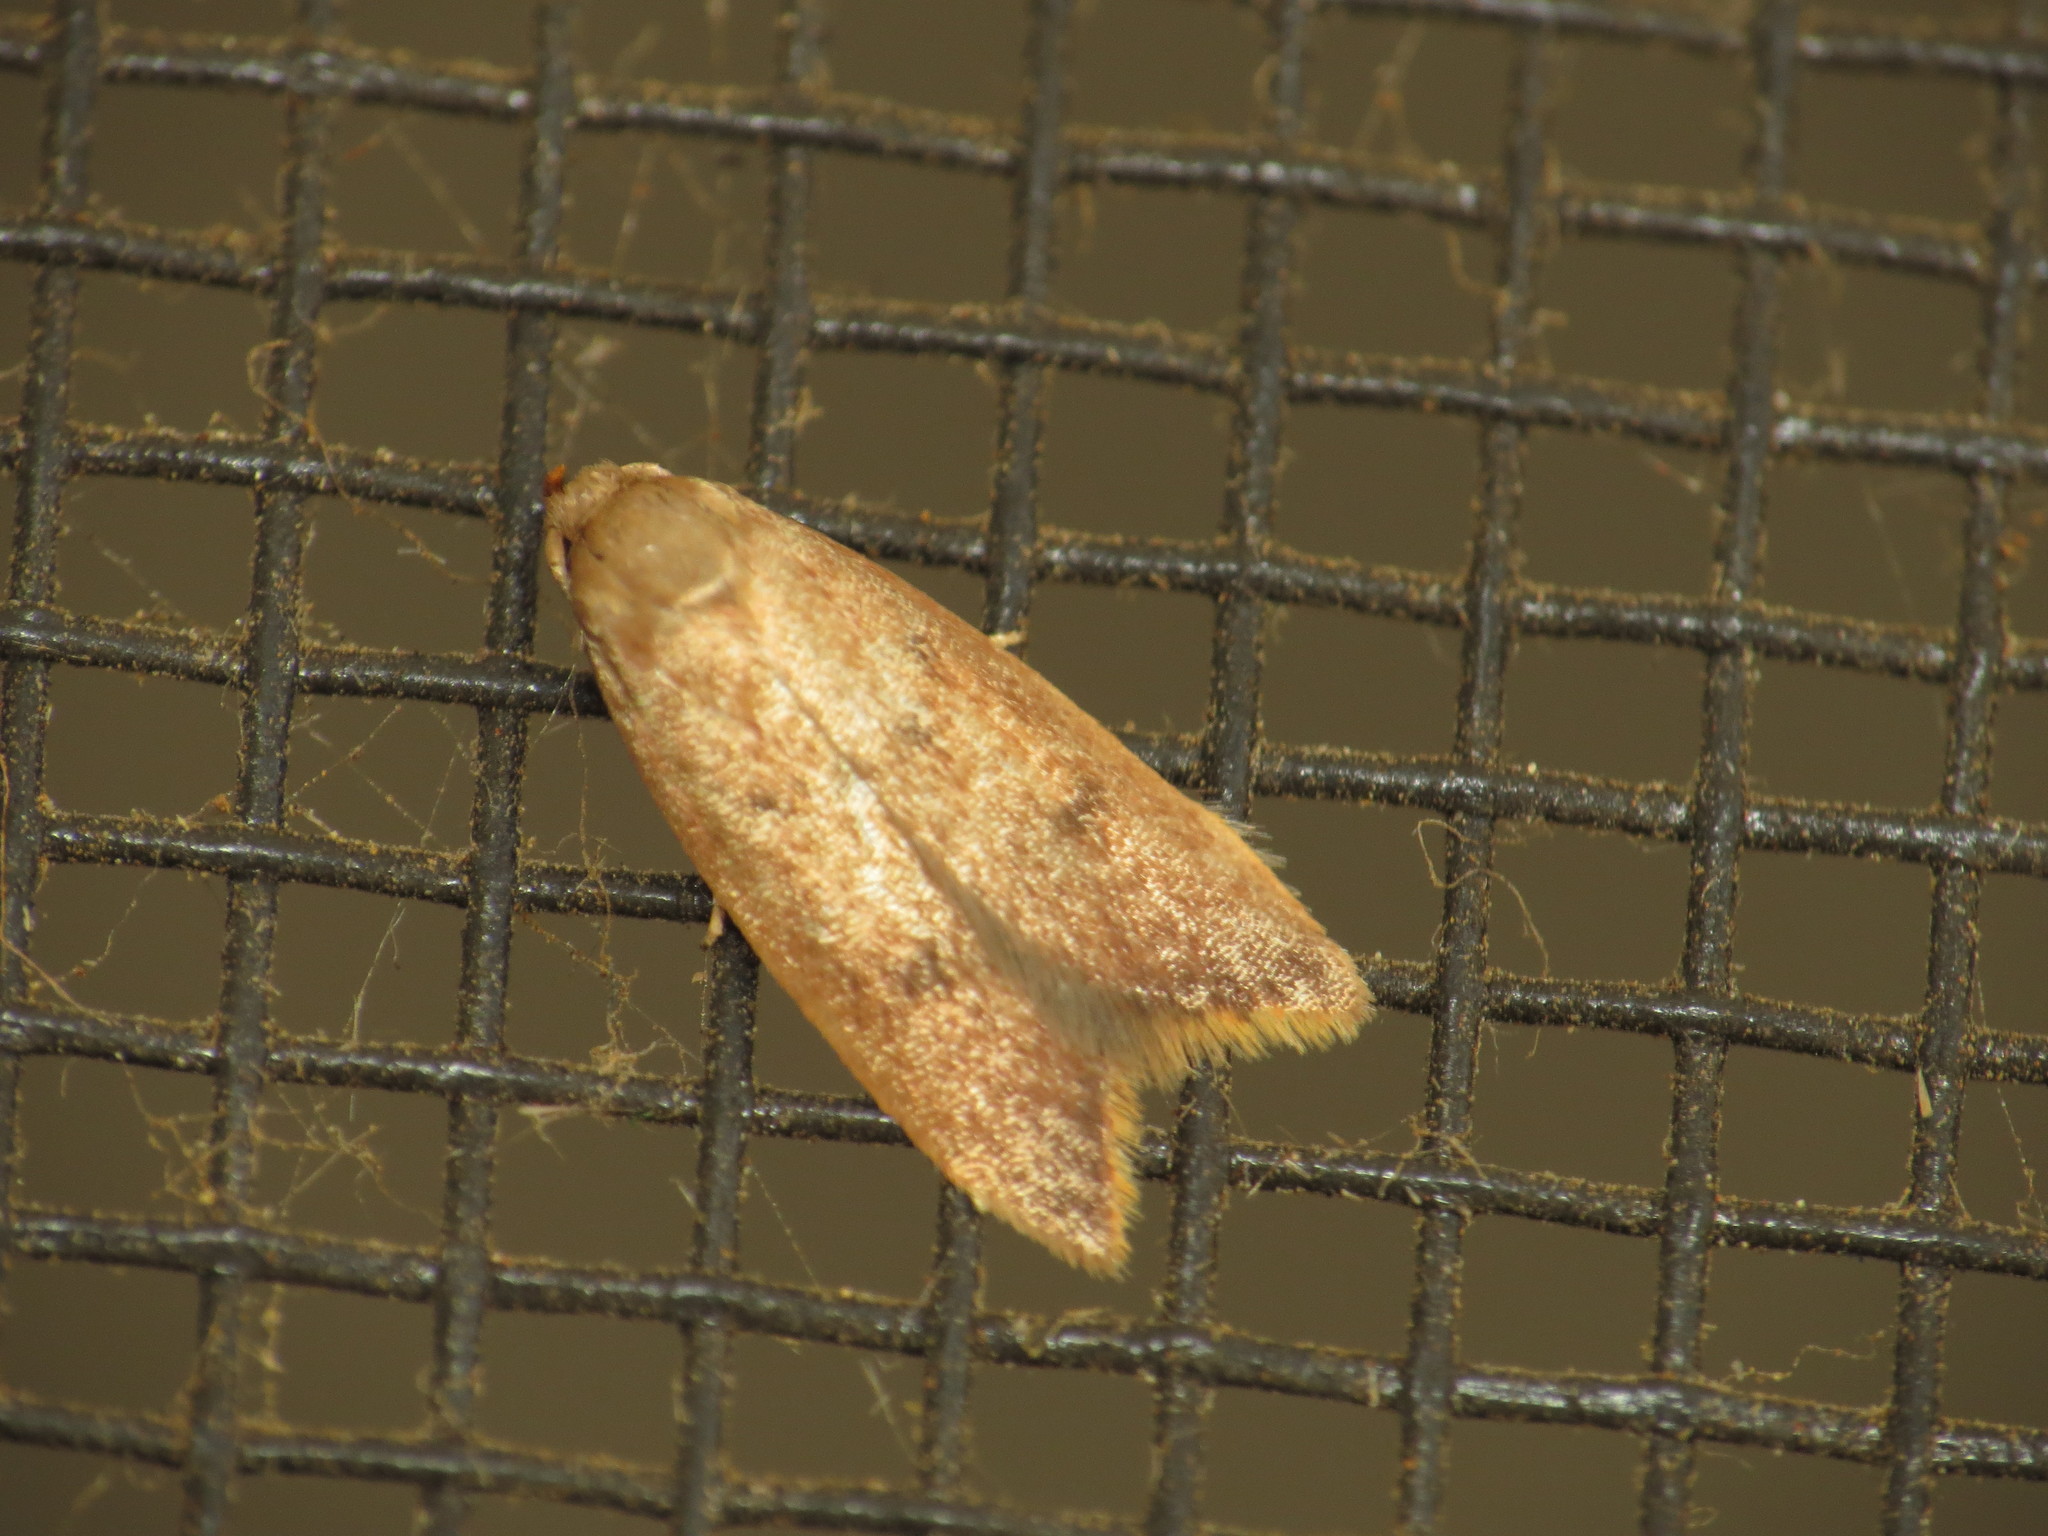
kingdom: Animalia
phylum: Arthropoda
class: Insecta
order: Lepidoptera
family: Oecophoridae
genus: Tachystola
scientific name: Tachystola acroxantha
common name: Ruddy streak
